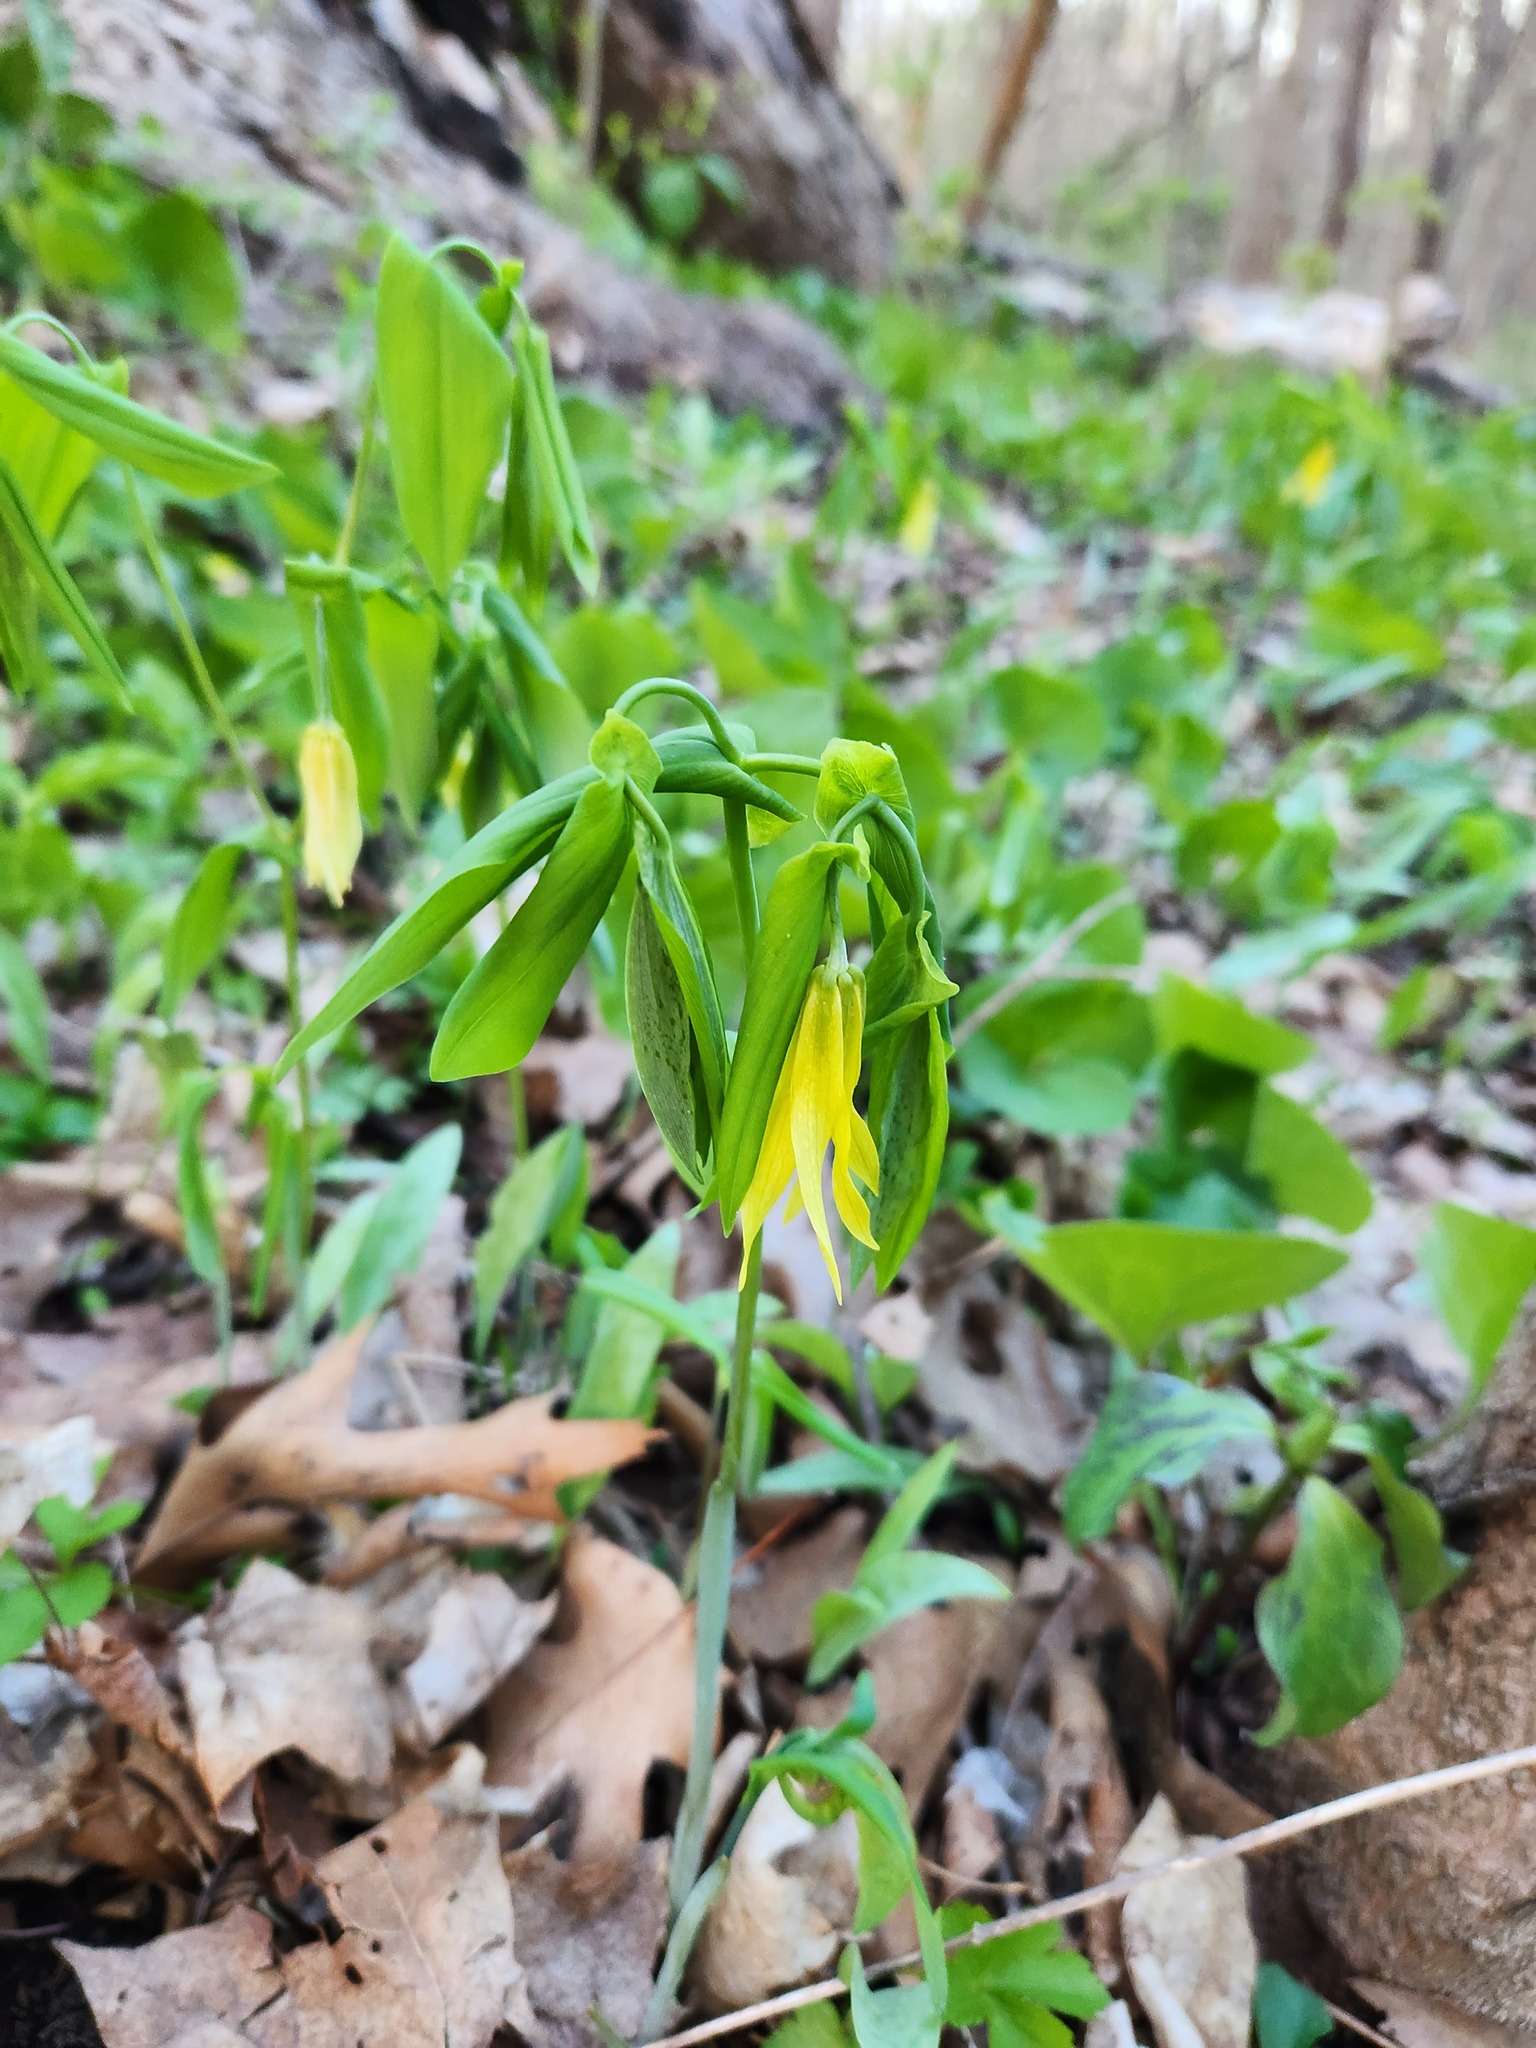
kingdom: Plantae
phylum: Tracheophyta
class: Liliopsida
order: Liliales
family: Colchicaceae
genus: Uvularia
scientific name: Uvularia grandiflora
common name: Bellwort
